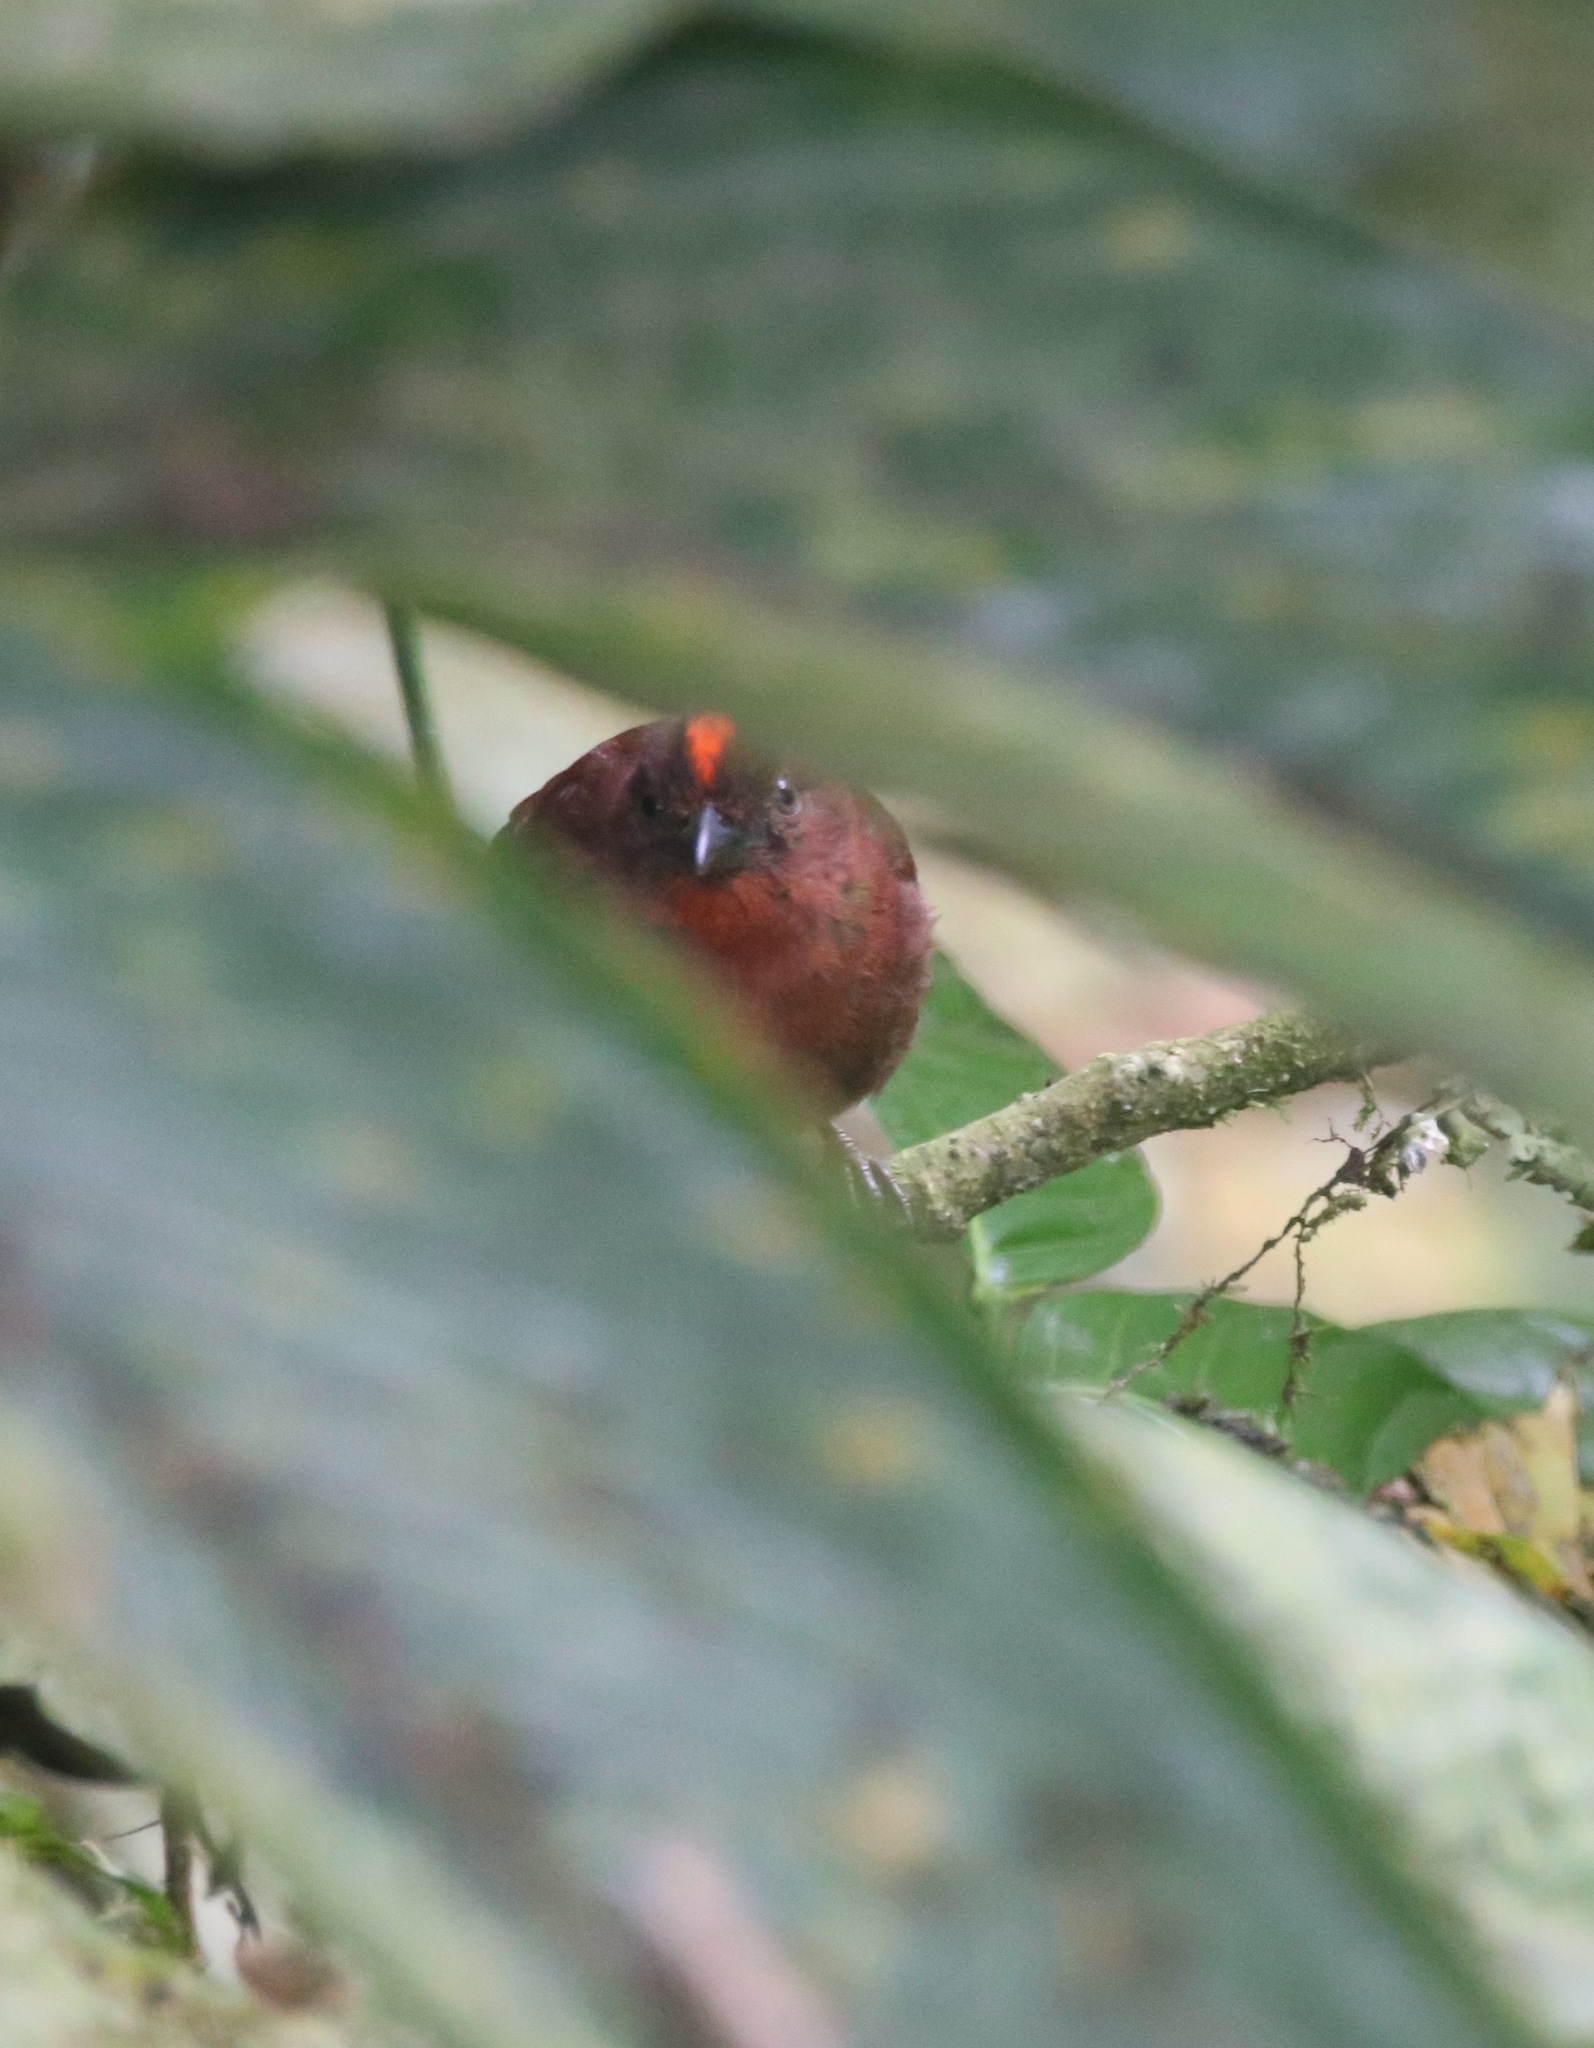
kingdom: Animalia
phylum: Chordata
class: Aves
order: Passeriformes
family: Cardinalidae
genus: Habia
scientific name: Habia rubica
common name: Red-crowned ant-tanager
